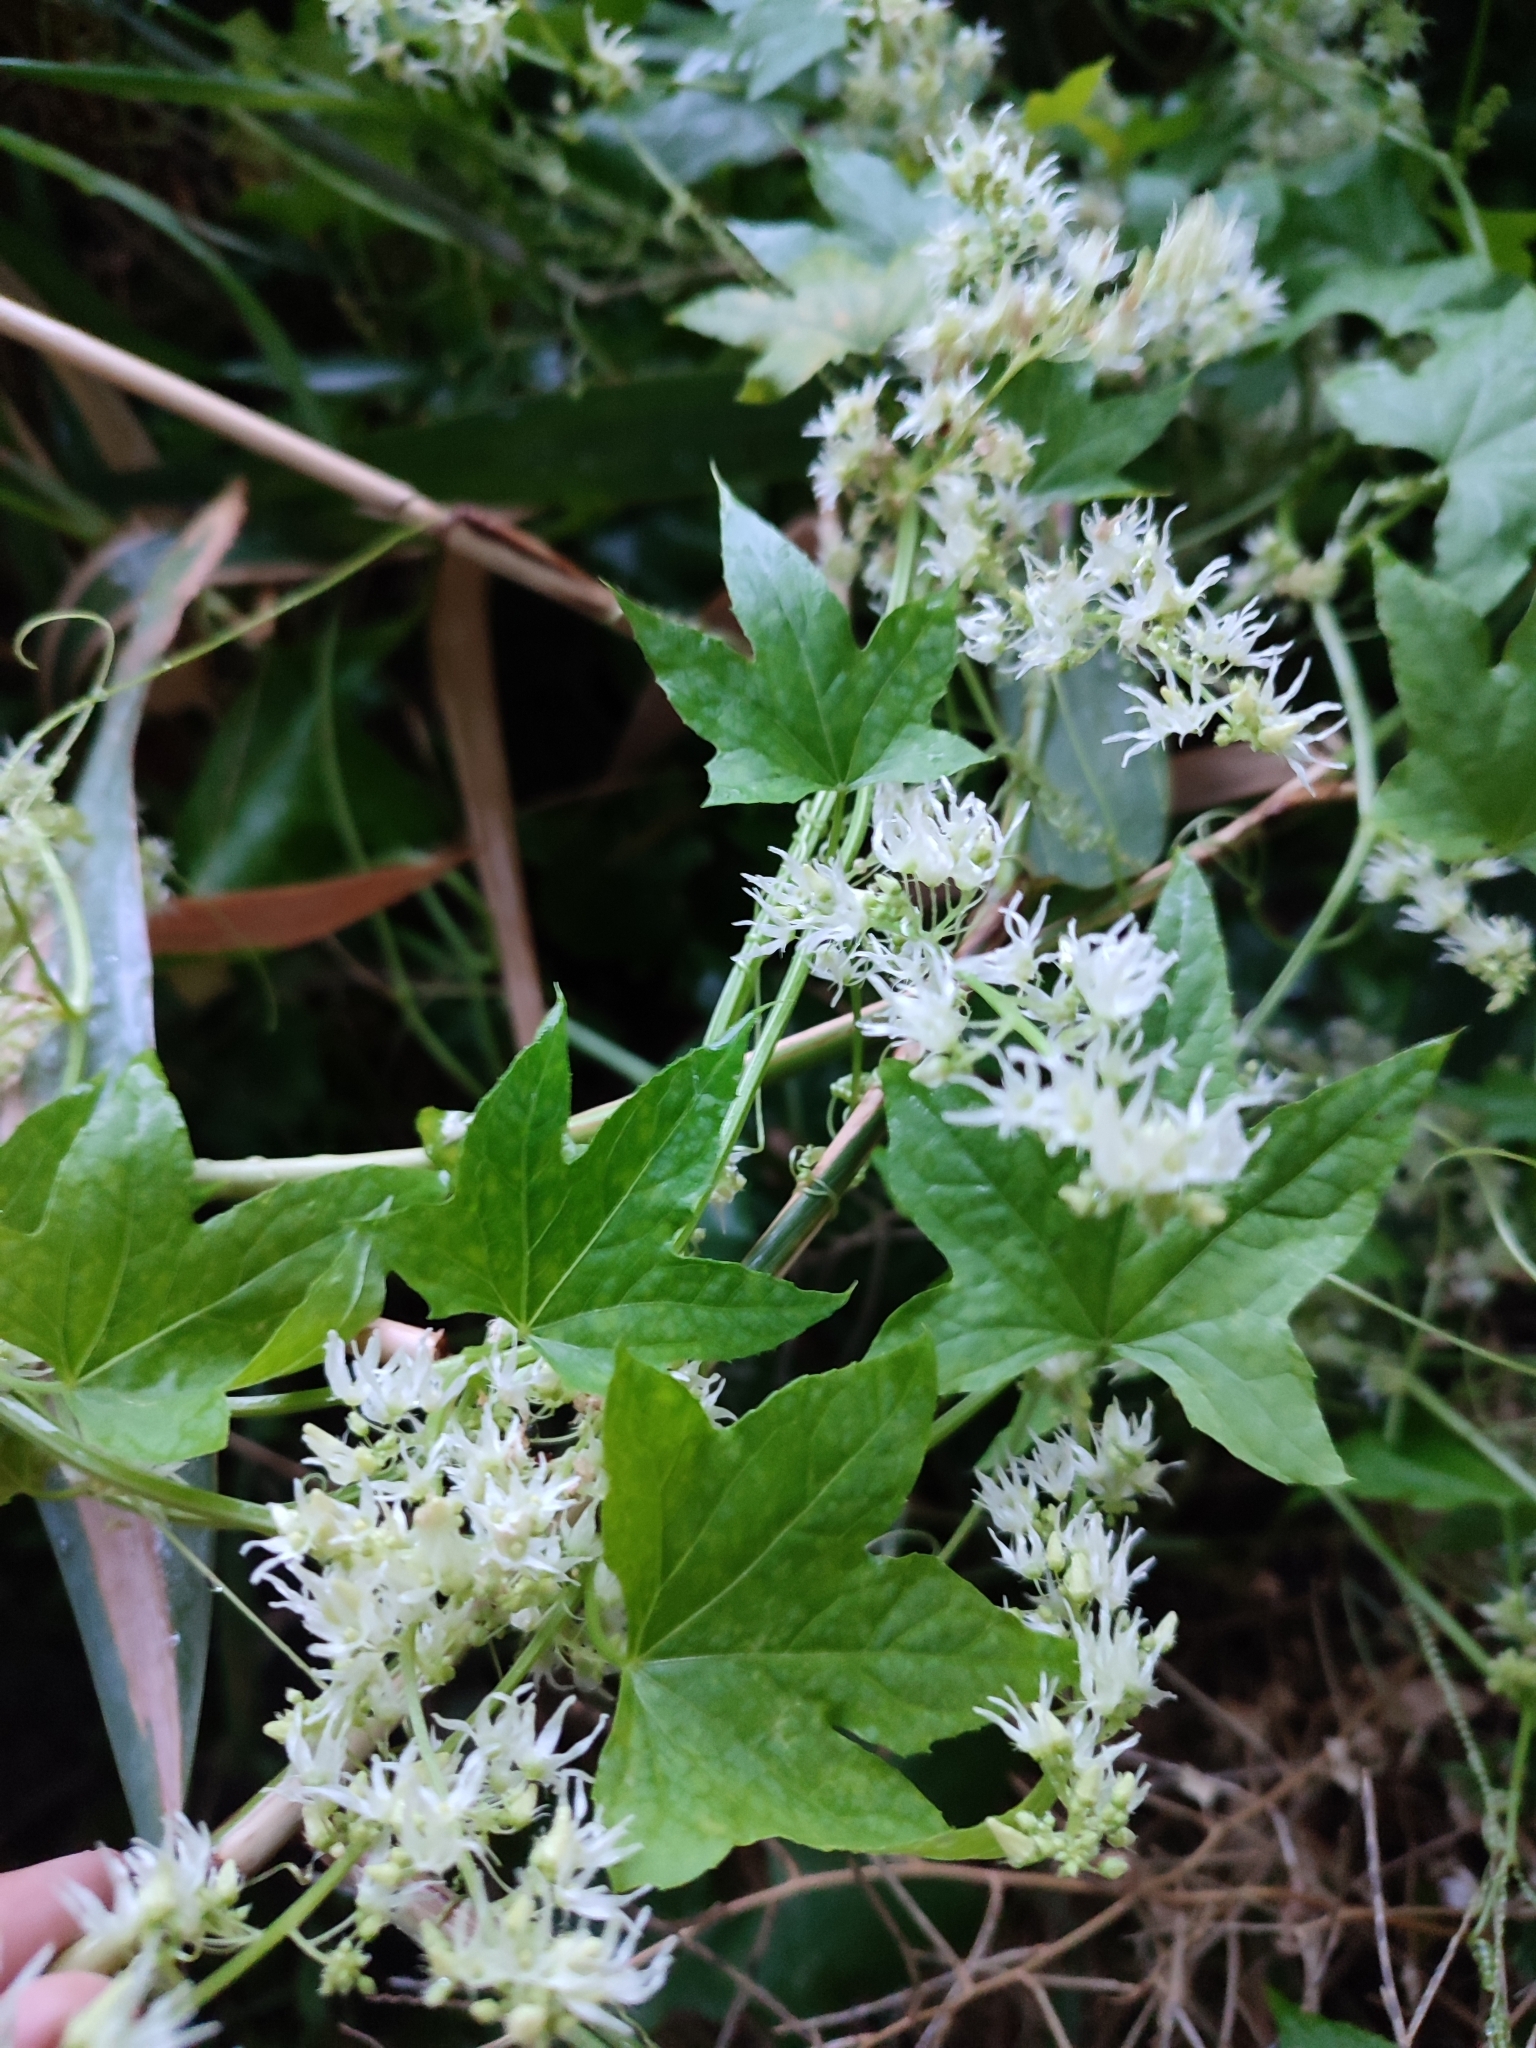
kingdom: Plantae
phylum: Tracheophyta
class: Magnoliopsida
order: Cucurbitales
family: Cucurbitaceae
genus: Echinocystis
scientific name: Echinocystis lobata
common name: Wild cucumber
